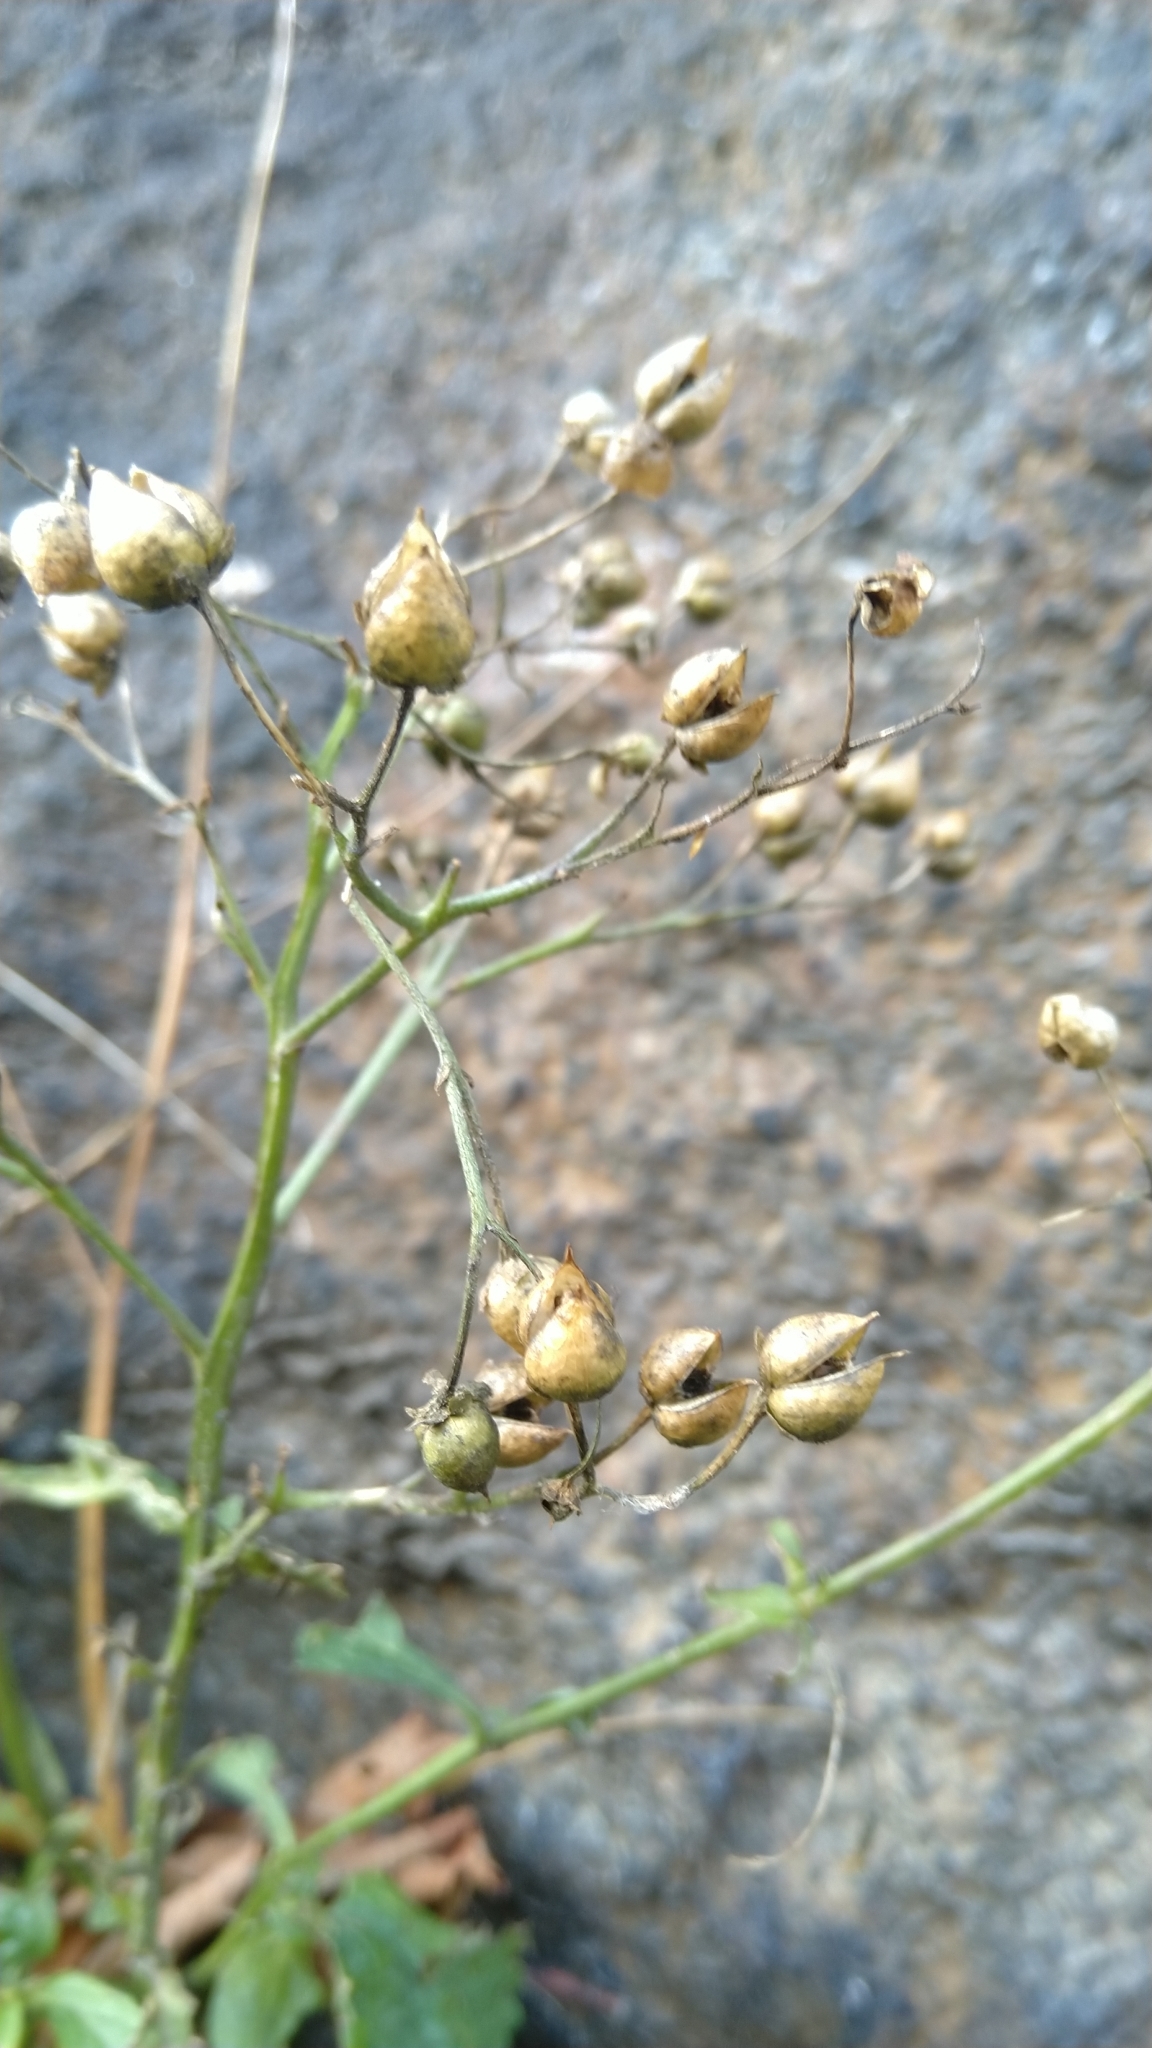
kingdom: Plantae
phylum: Tracheophyta
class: Magnoliopsida
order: Lamiales
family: Scrophulariaceae
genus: Scrophularia
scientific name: Scrophularia nodosa
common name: Common figwort
